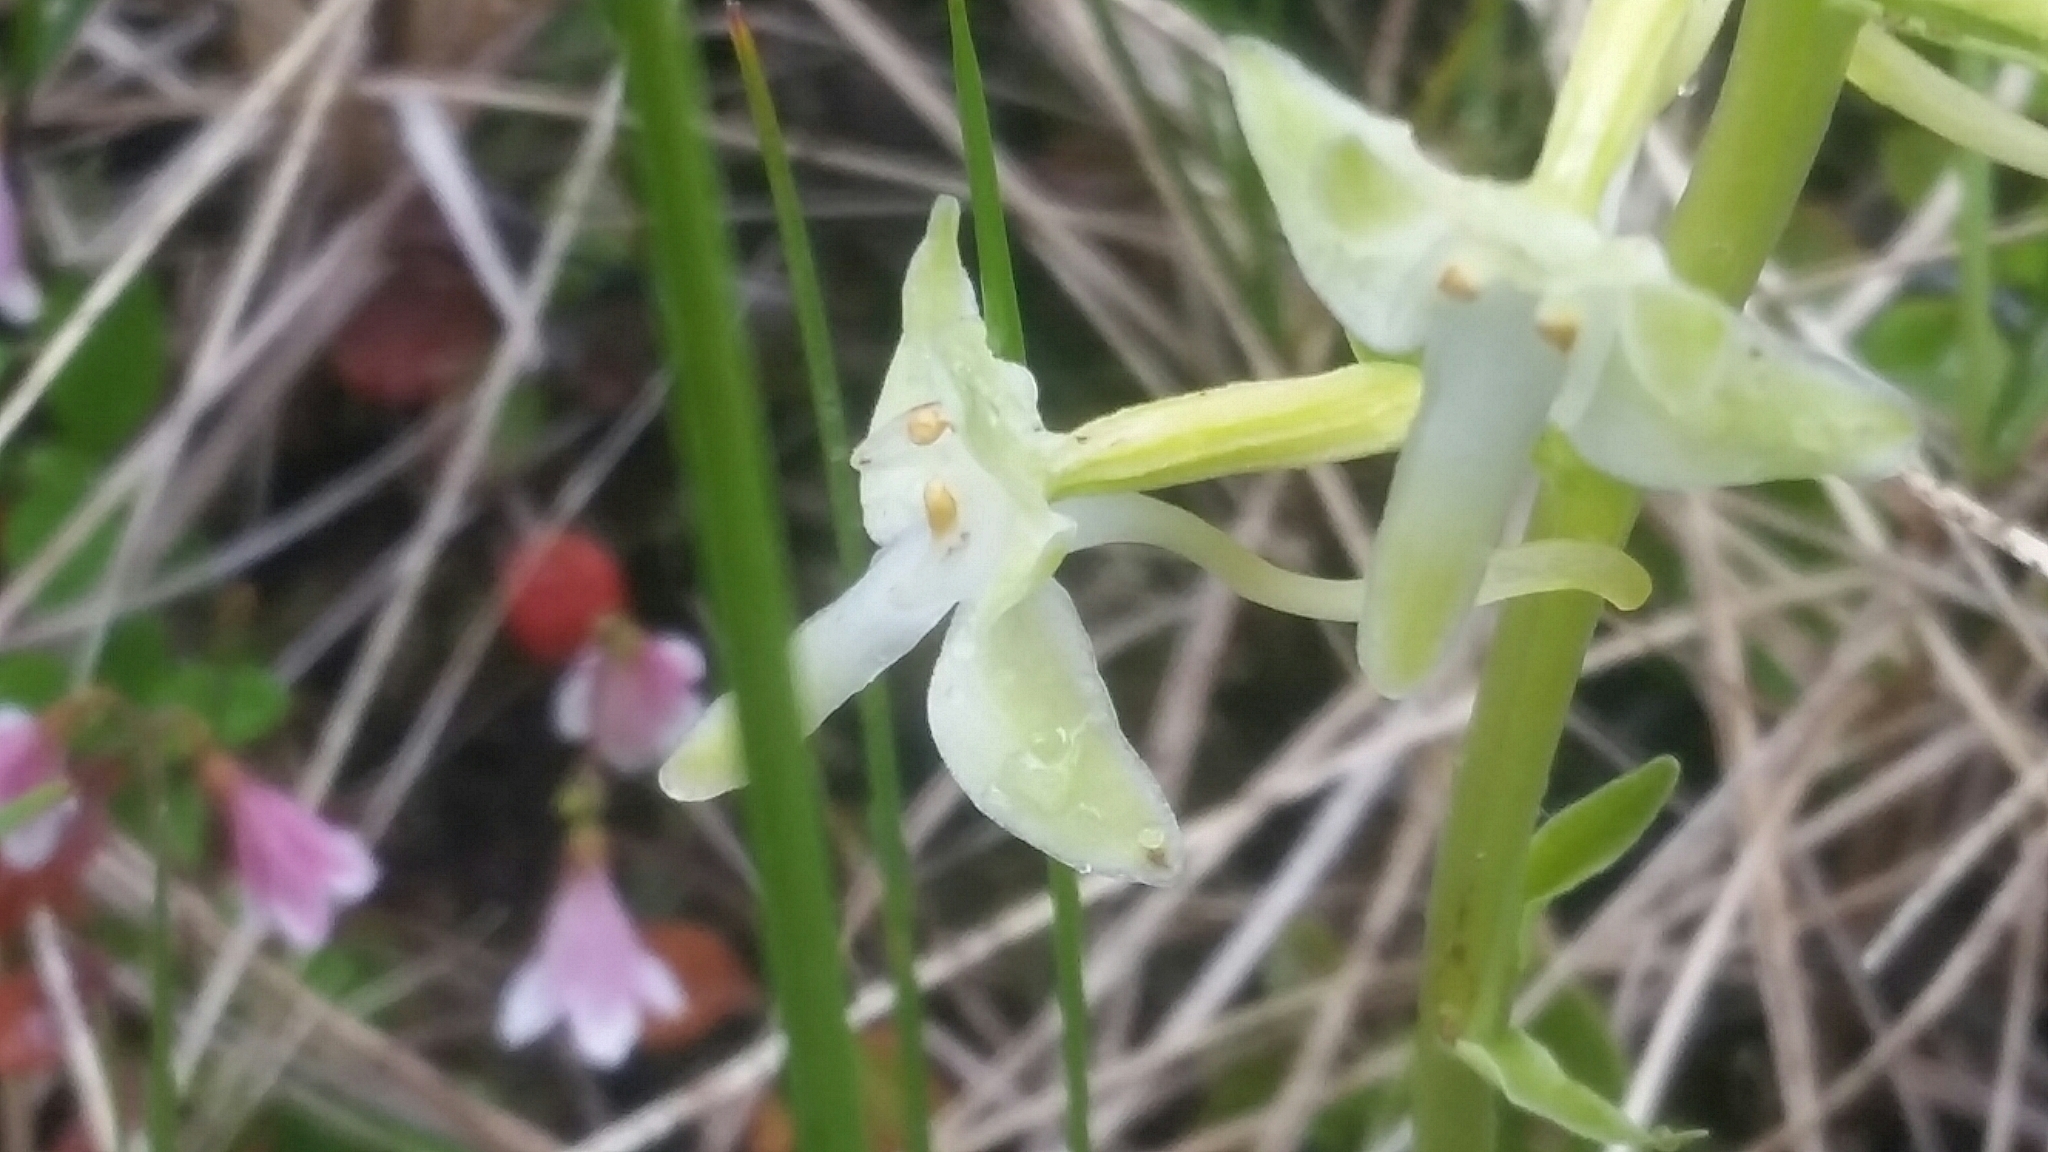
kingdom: Plantae
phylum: Tracheophyta
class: Liliopsida
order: Asparagales
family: Orchidaceae
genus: Platanthera
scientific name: Platanthera orbiculata
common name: Large round-leaved orchid
